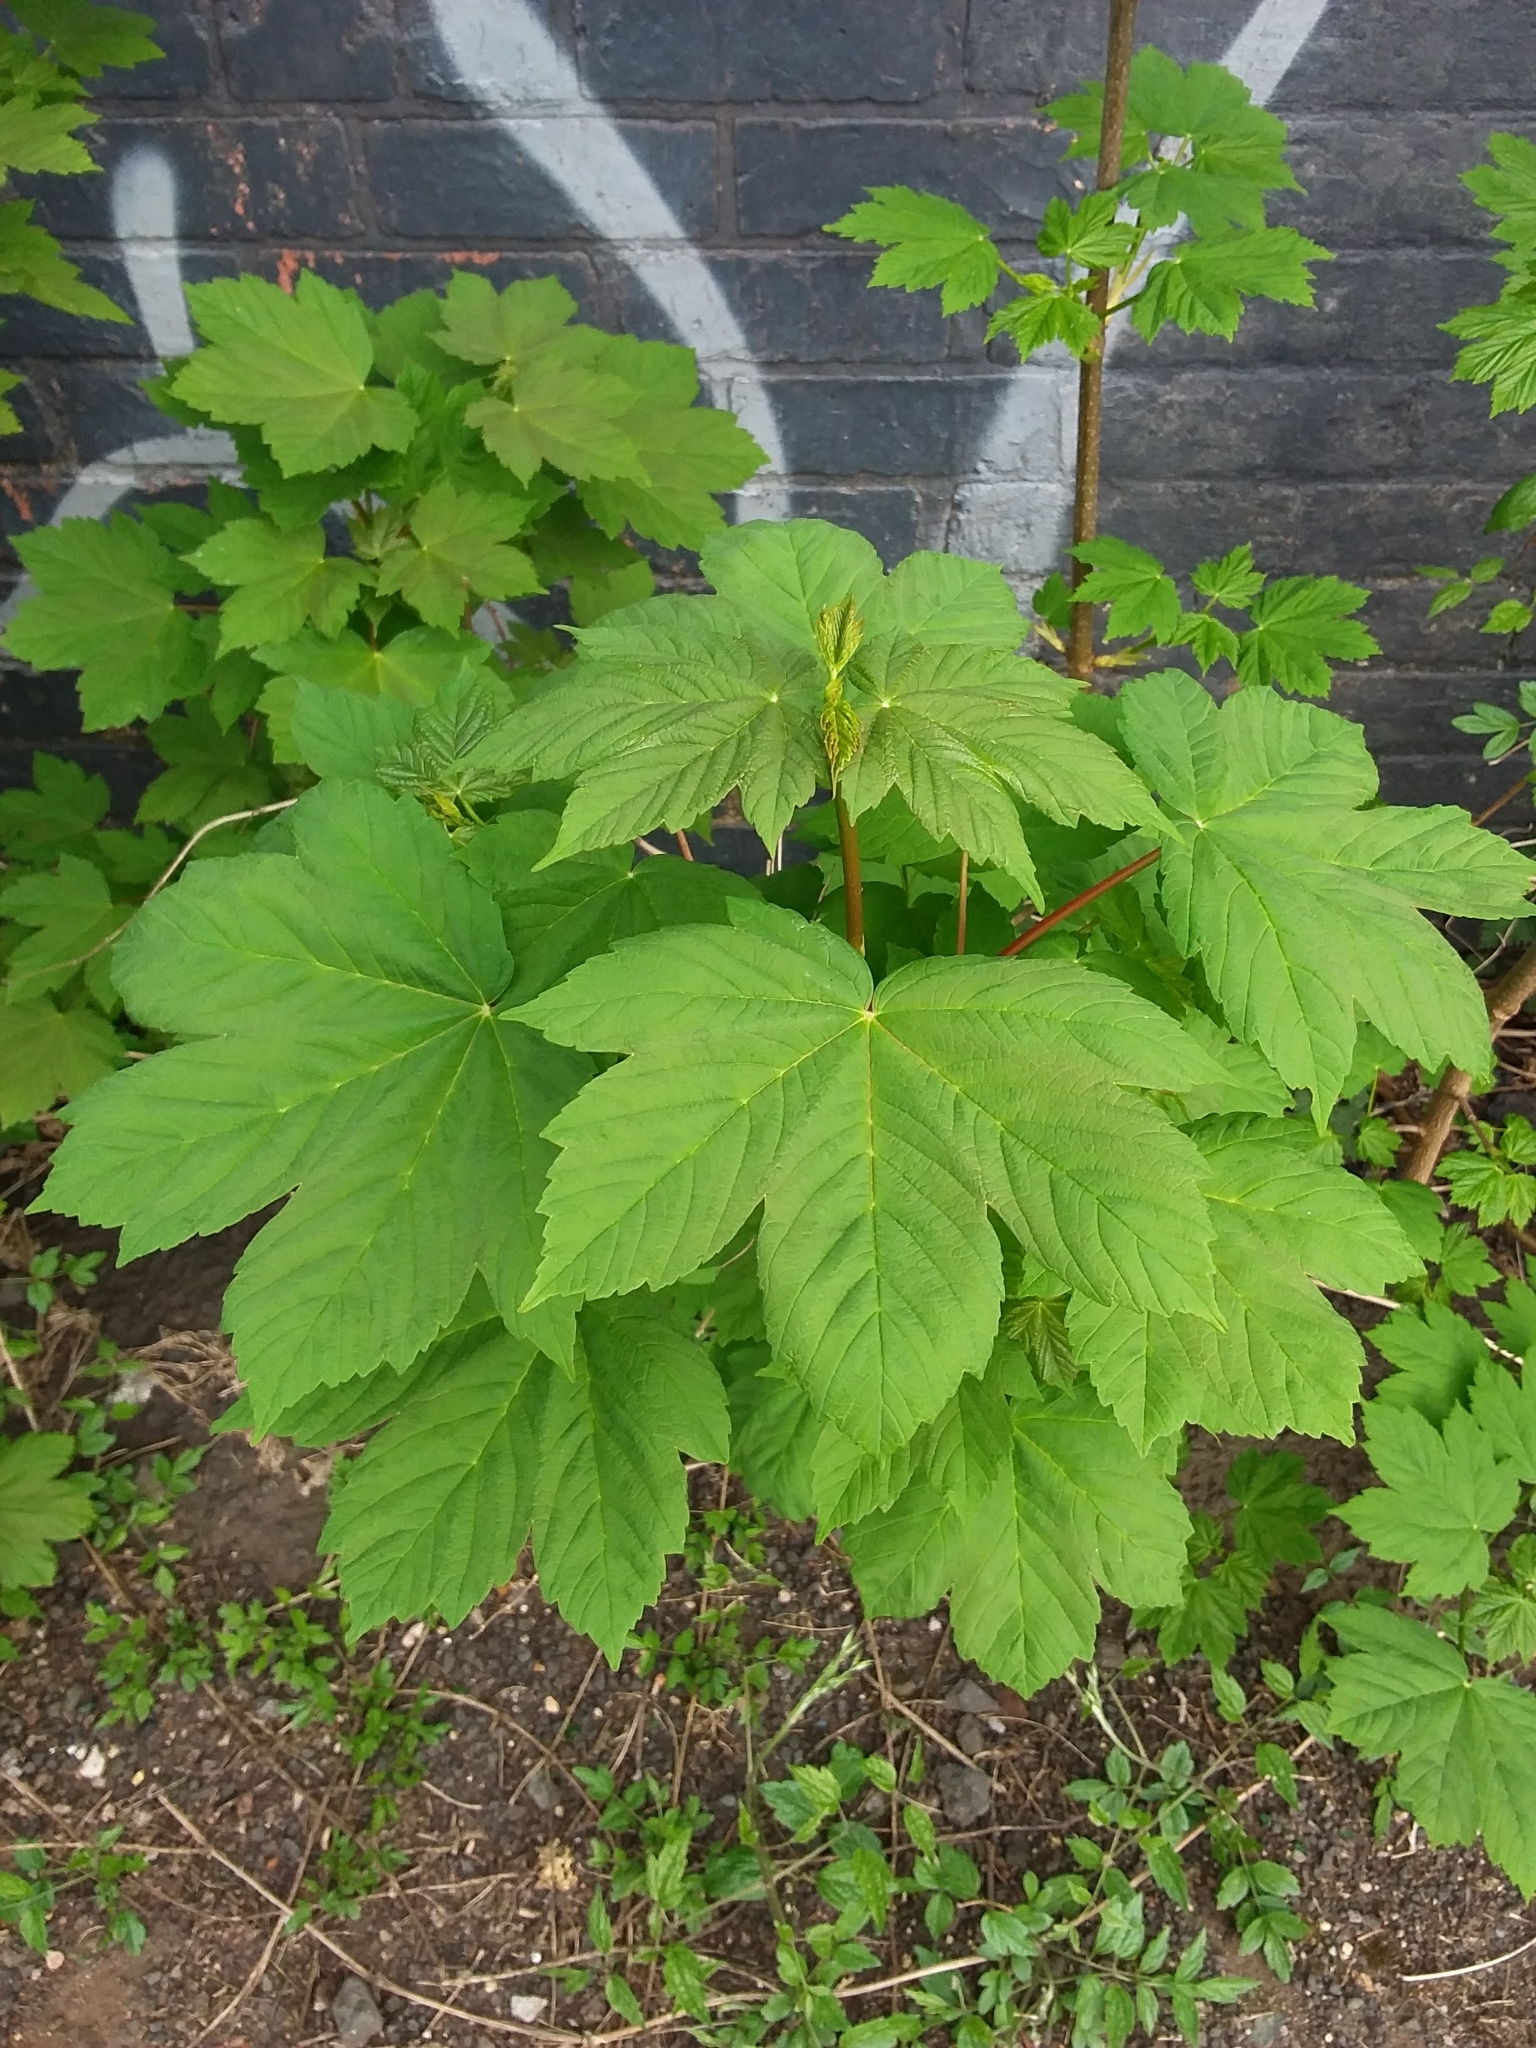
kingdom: Plantae
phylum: Tracheophyta
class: Magnoliopsida
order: Sapindales
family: Sapindaceae
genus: Acer
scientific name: Acer pseudoplatanus
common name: Sycamore
